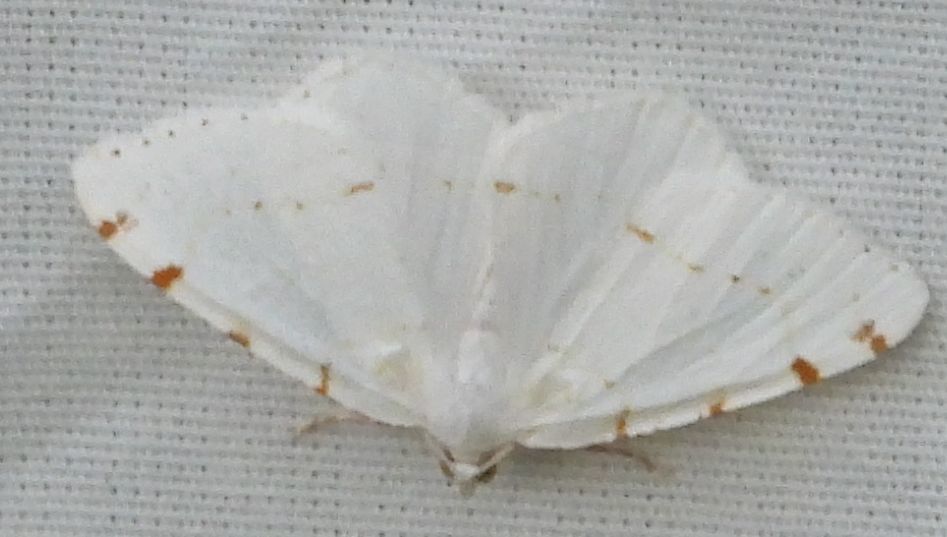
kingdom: Animalia
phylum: Arthropoda
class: Insecta
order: Lepidoptera
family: Geometridae
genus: Macaria
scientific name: Macaria pustularia
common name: Lesser maple spanworm moth
